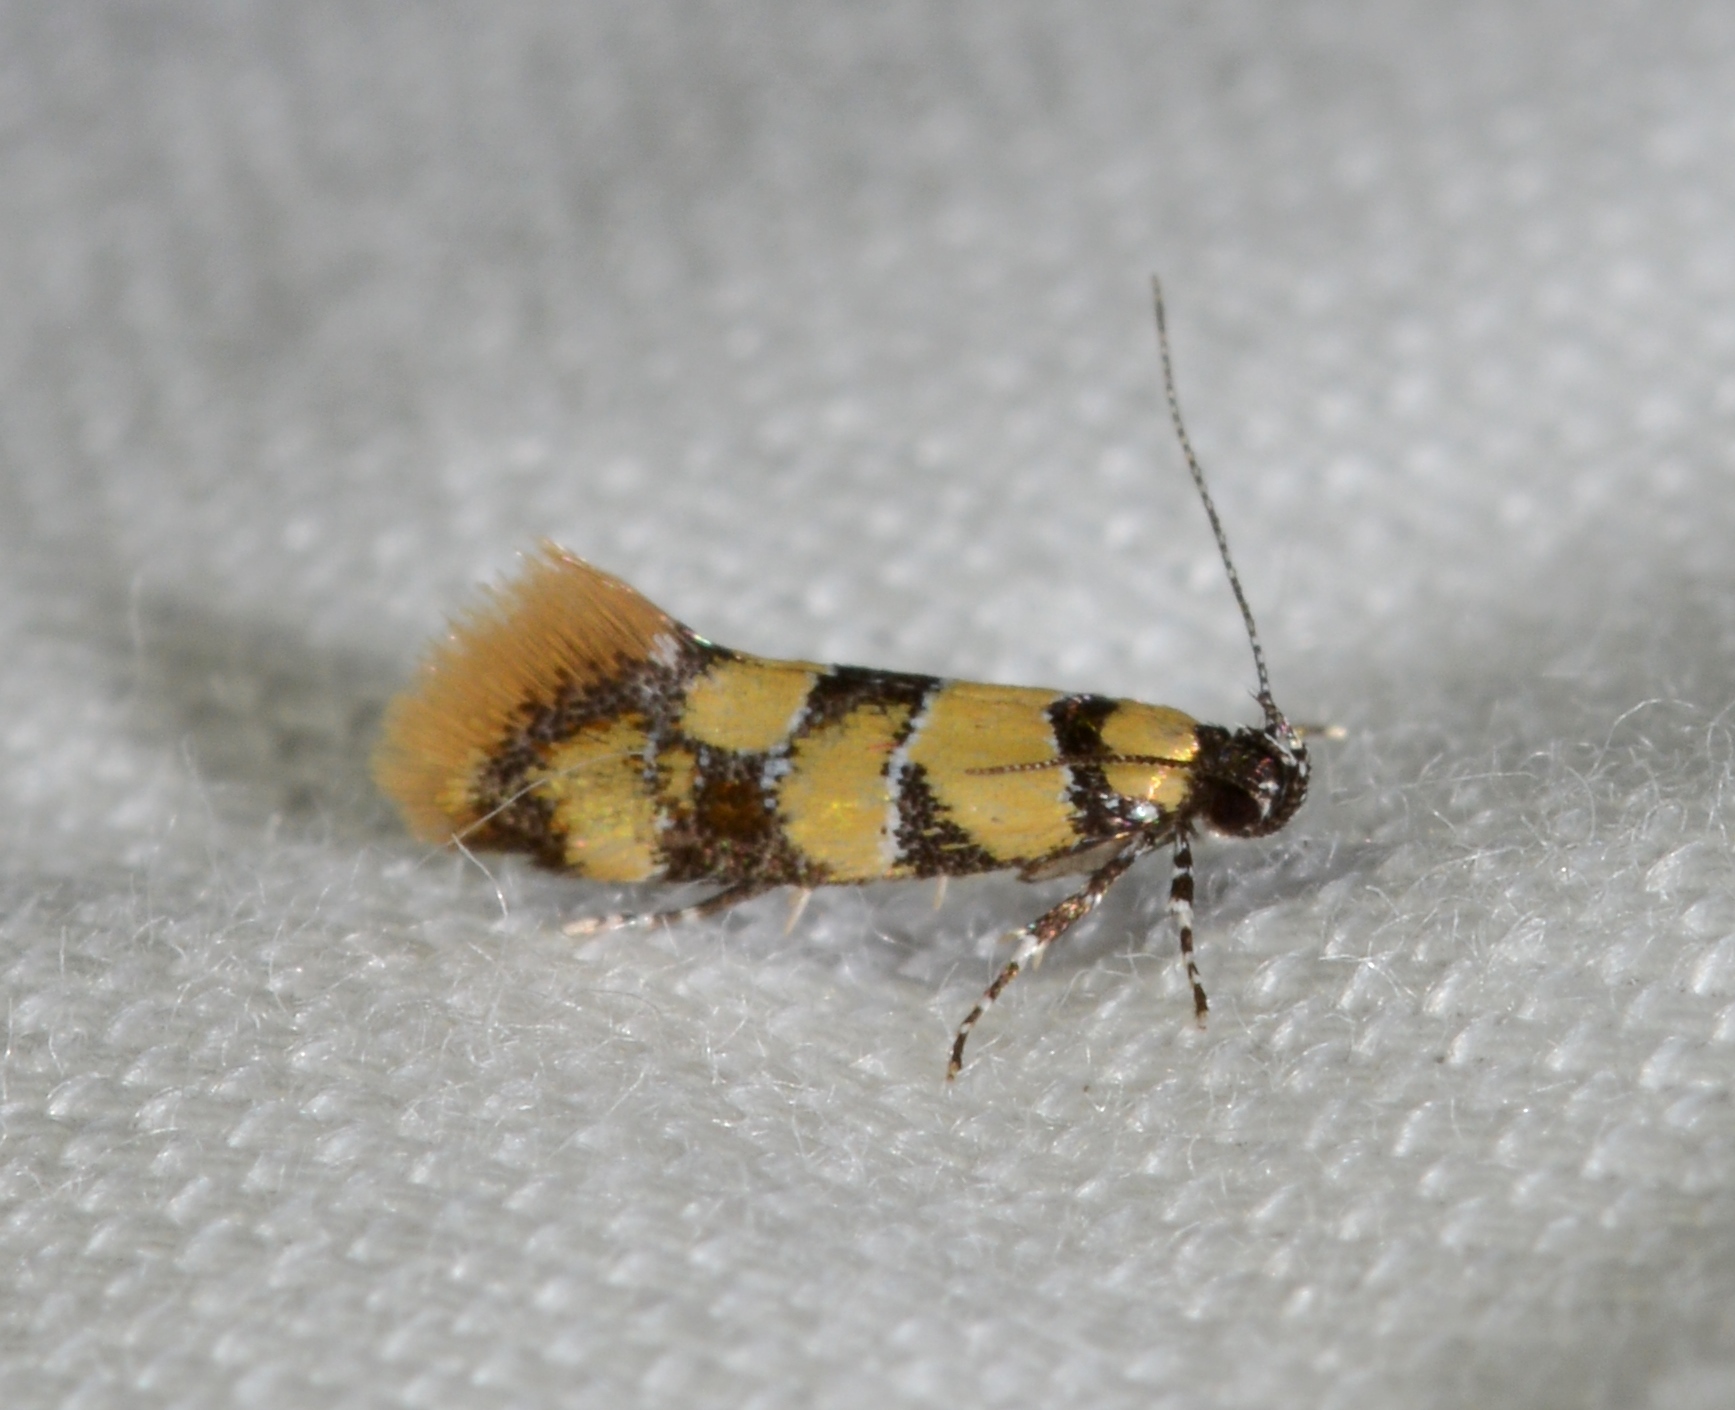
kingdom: Animalia
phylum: Arthropoda
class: Insecta
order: Lepidoptera
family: Oecophoridae
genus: Decantha
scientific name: Decantha borkhausenii
